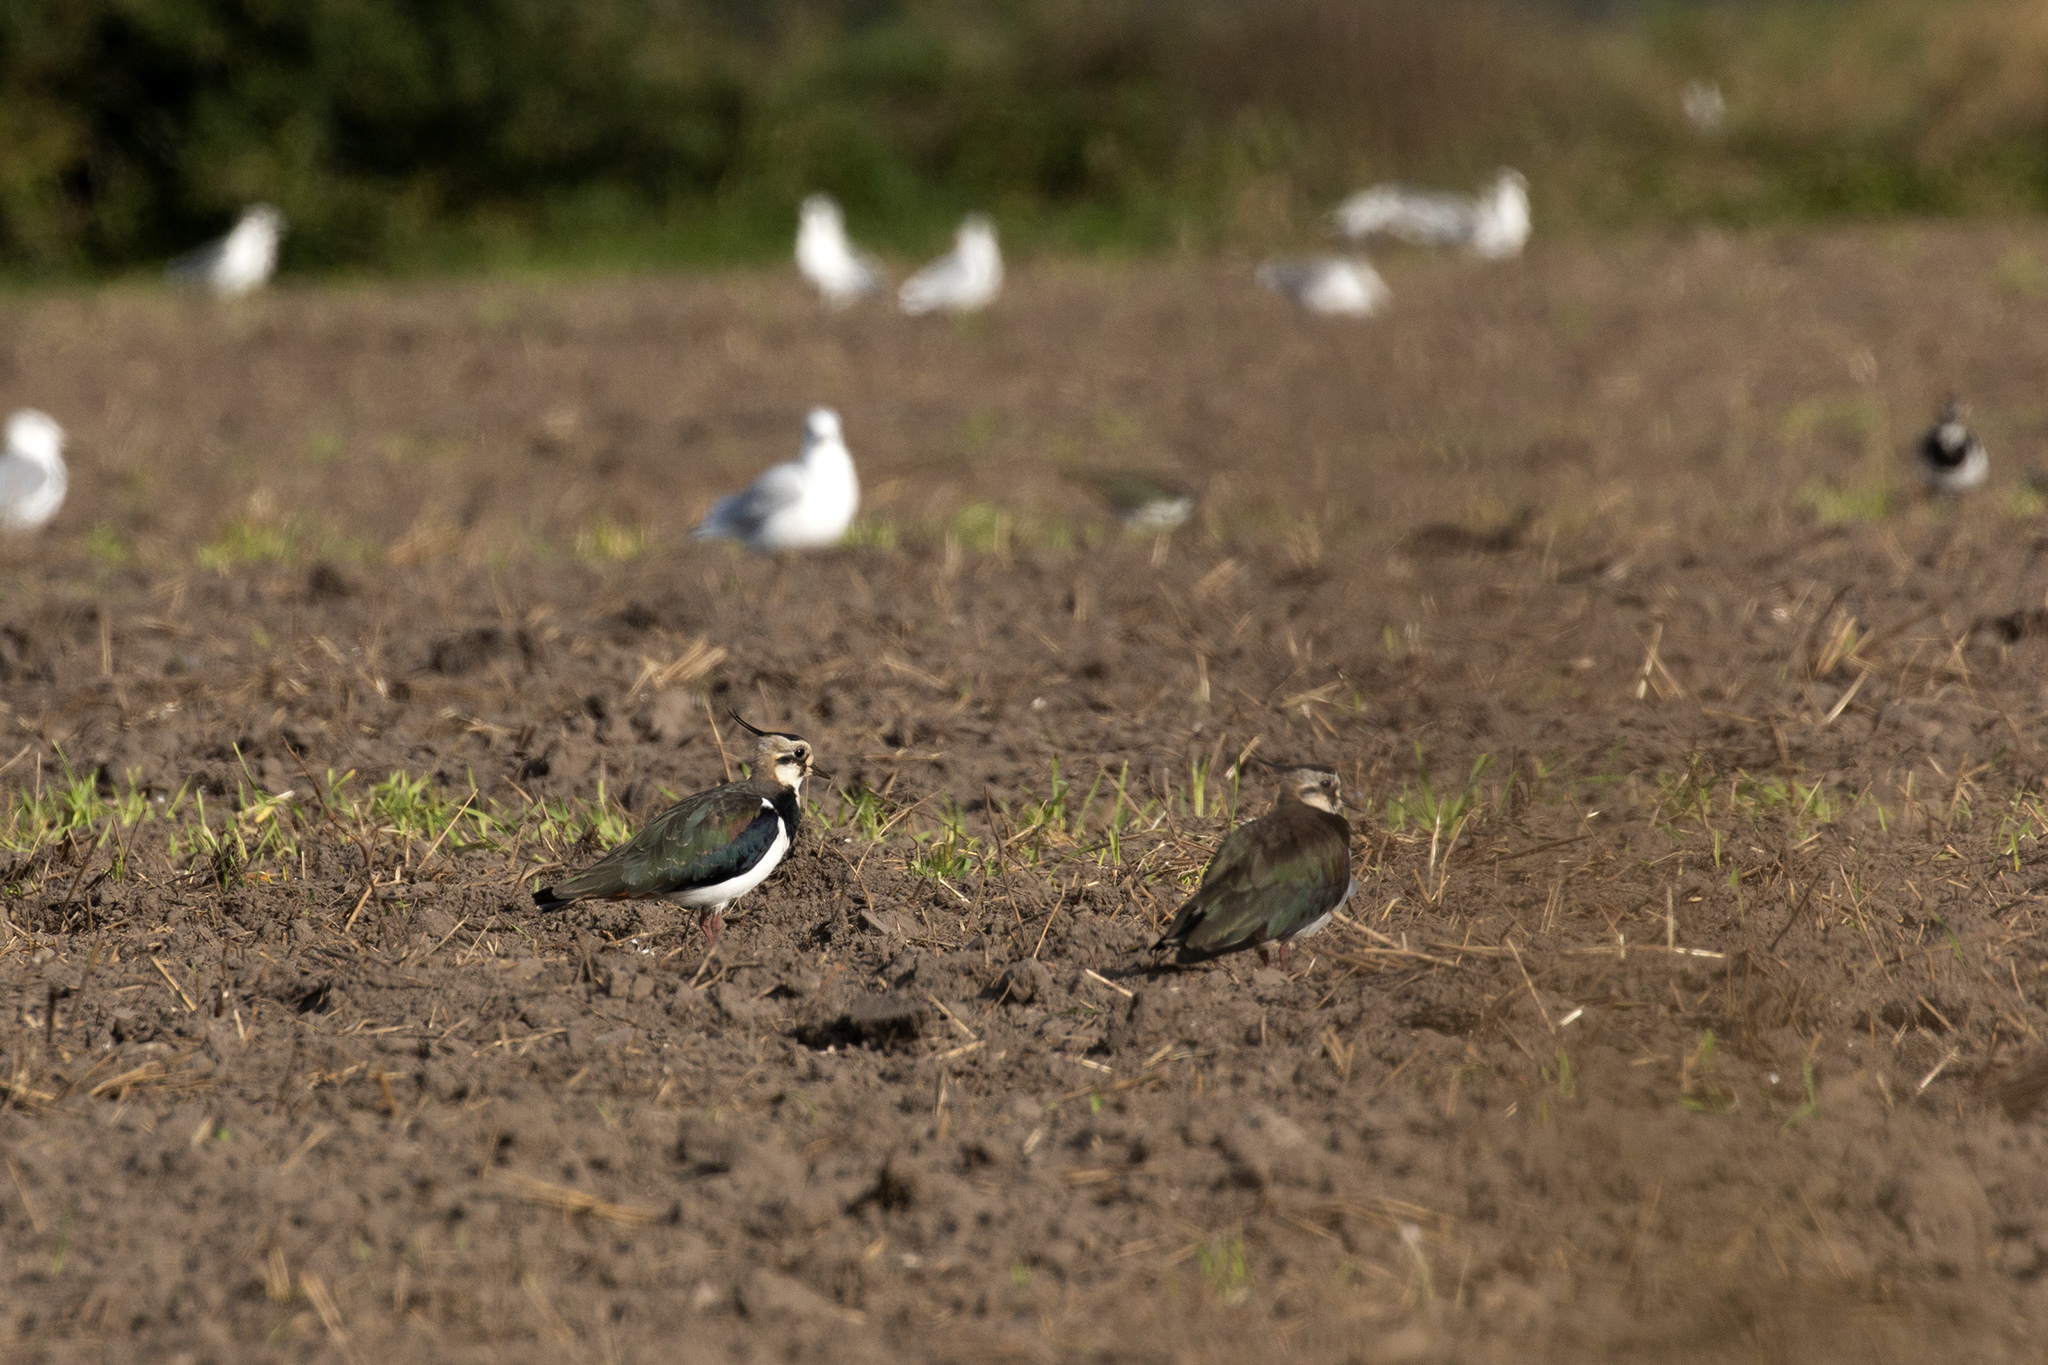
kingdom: Animalia
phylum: Chordata
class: Aves
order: Charadriiformes
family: Charadriidae
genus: Vanellus
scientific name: Vanellus vanellus
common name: Northern lapwing
